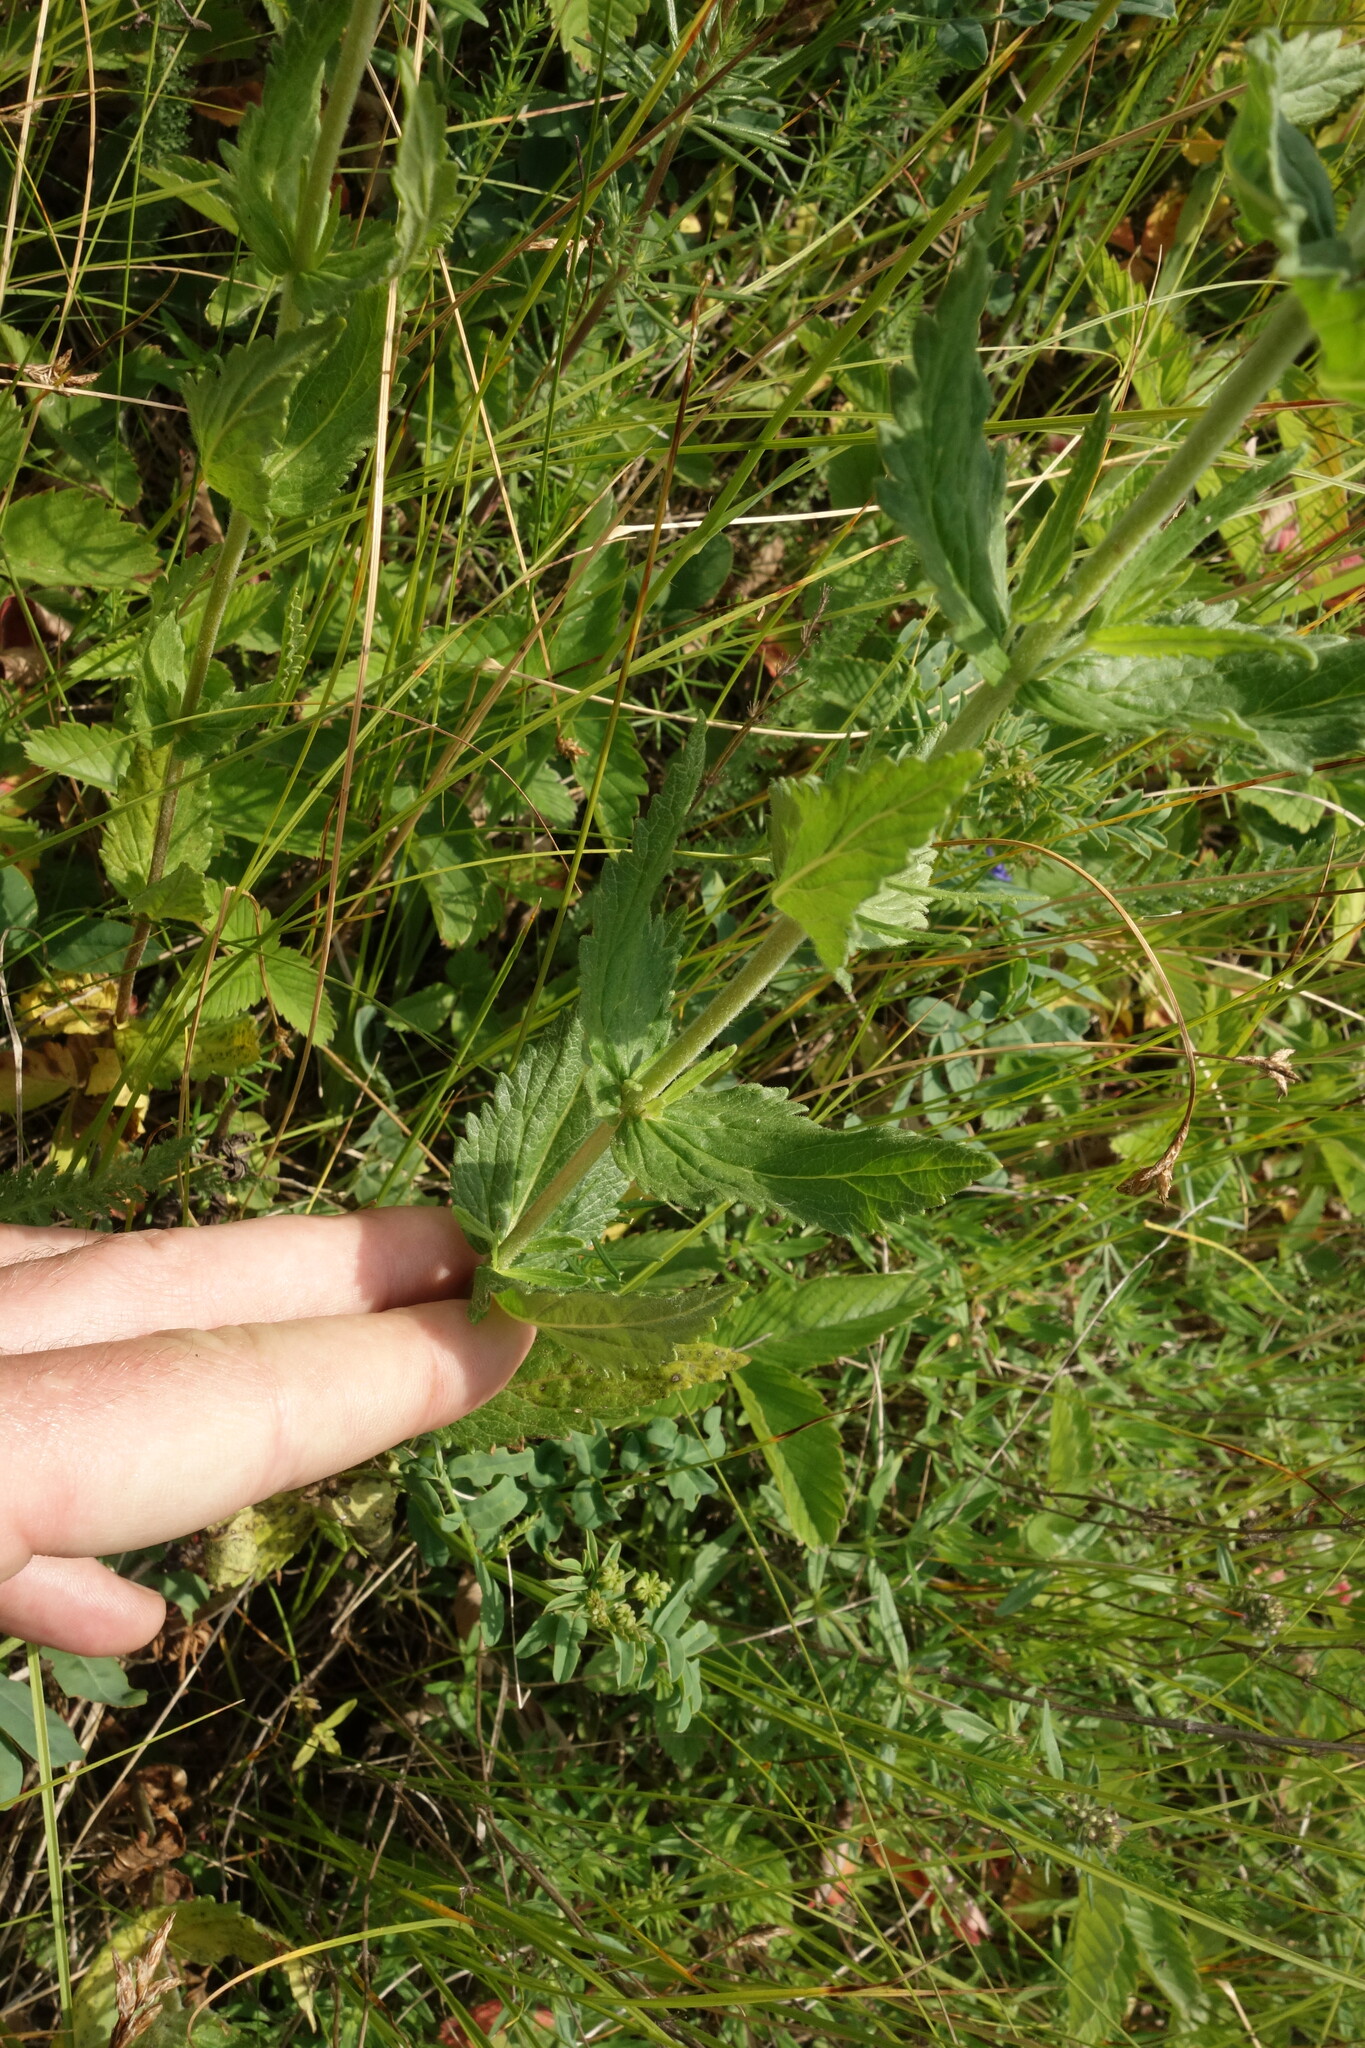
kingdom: Plantae
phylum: Tracheophyta
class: Magnoliopsida
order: Lamiales
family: Plantaginaceae
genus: Veronica
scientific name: Veronica teucrium
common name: Large speedwell
